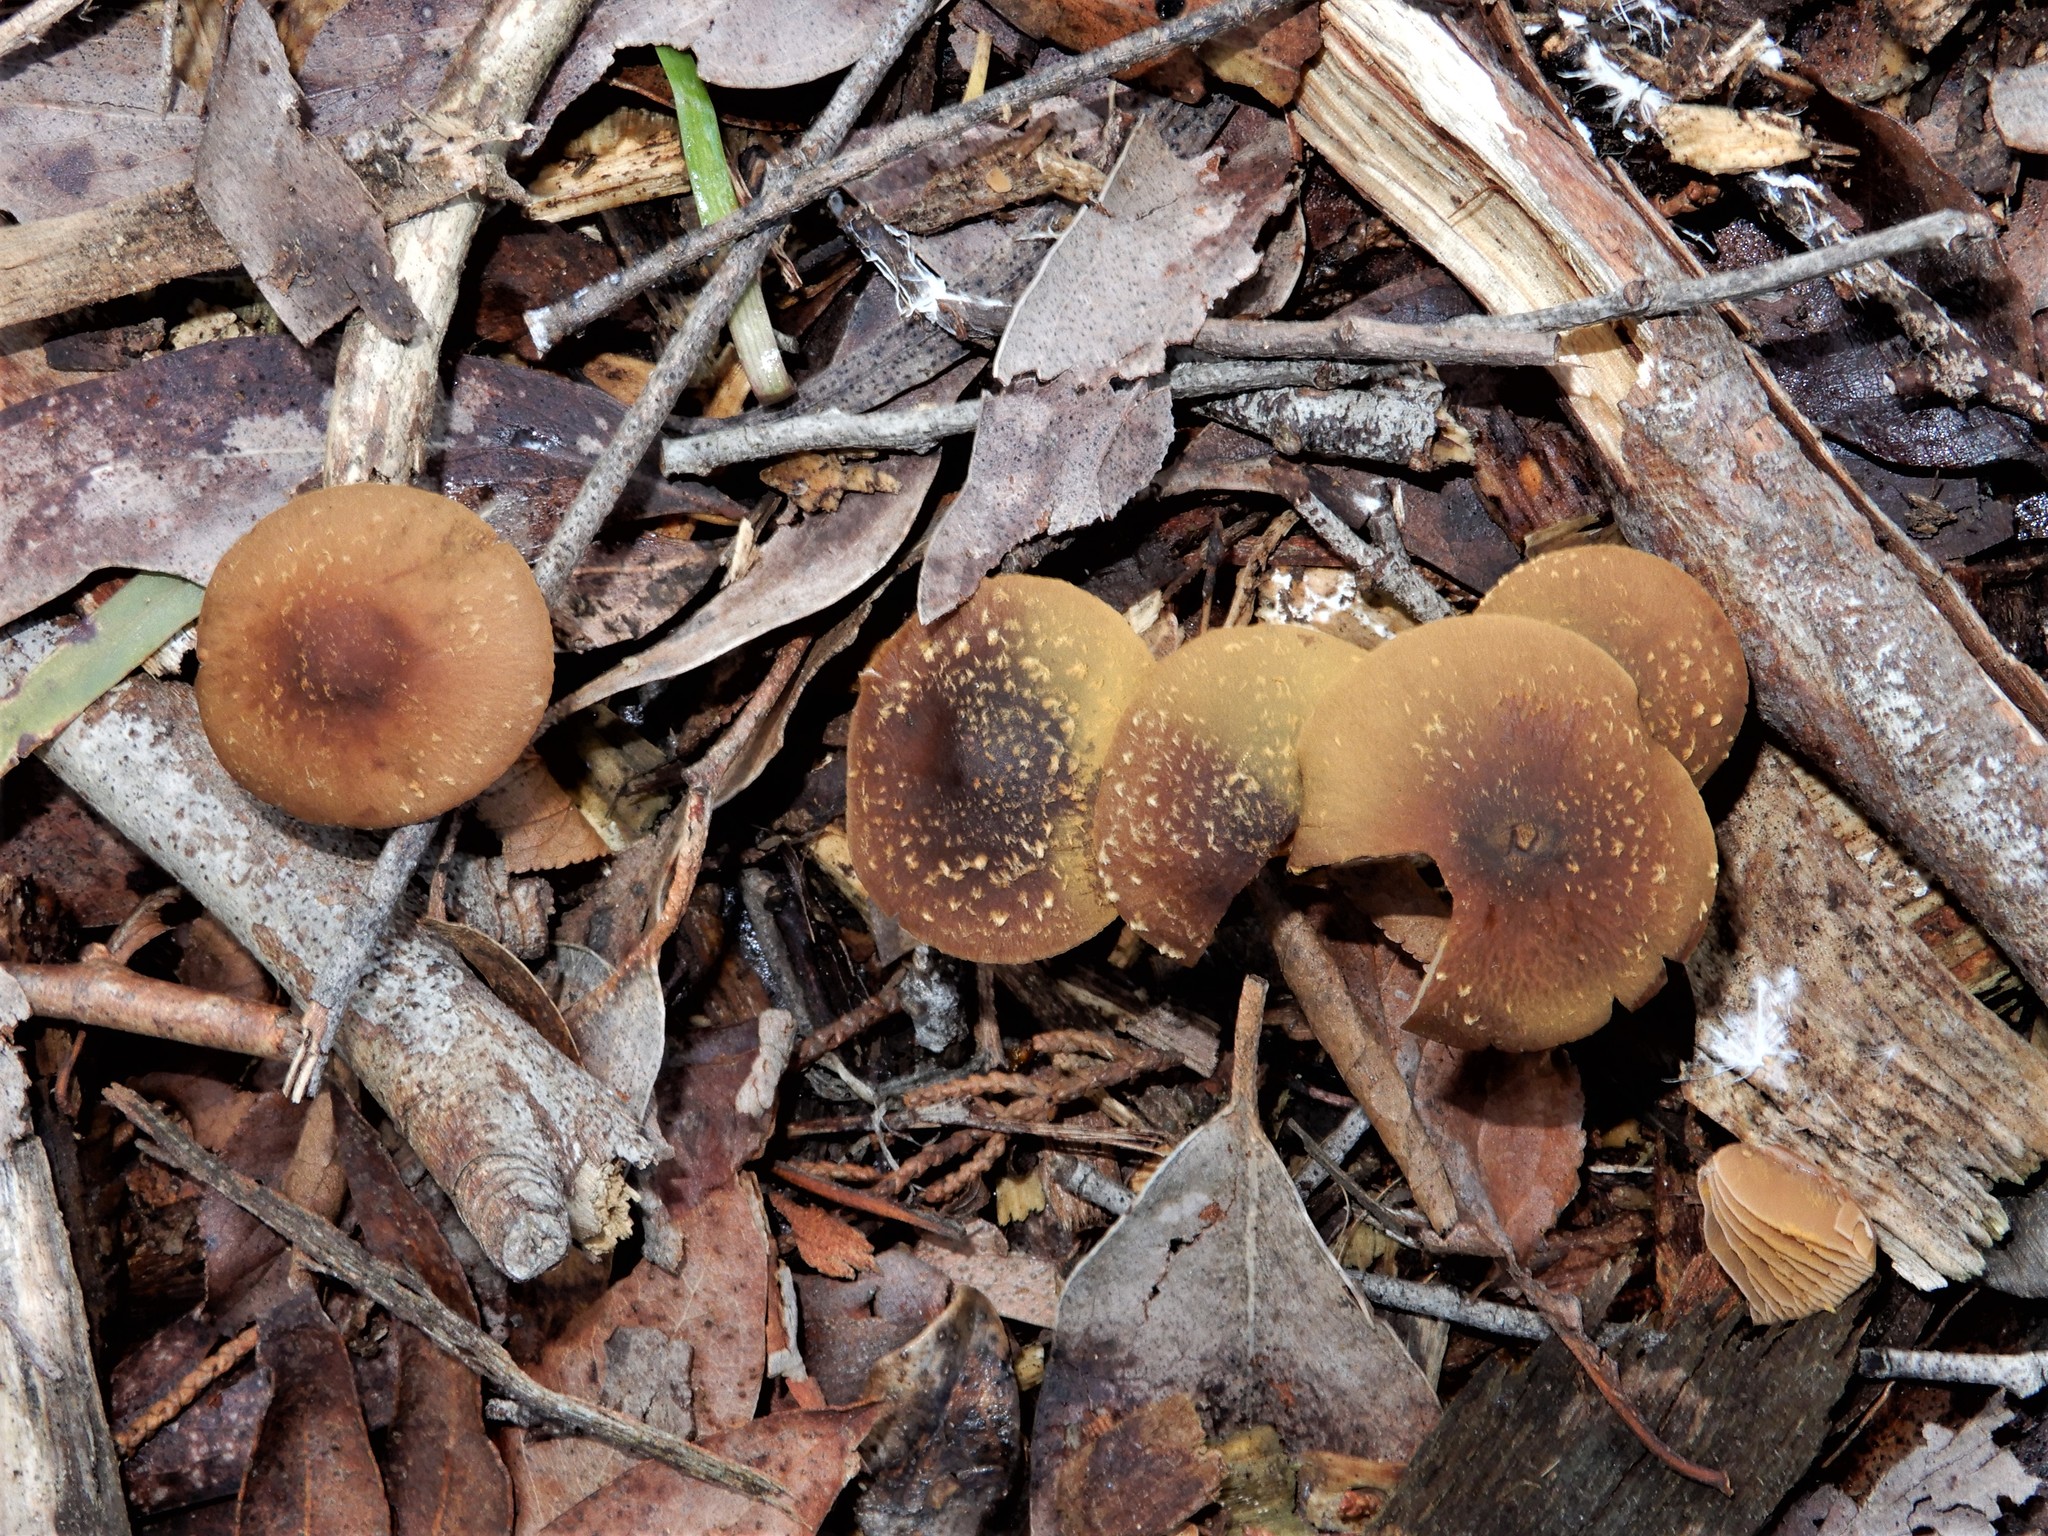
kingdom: Fungi
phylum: Basidiomycota
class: Agaricomycetes
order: Agaricales
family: Bolbitiaceae
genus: Descolea
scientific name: Descolea maculata
